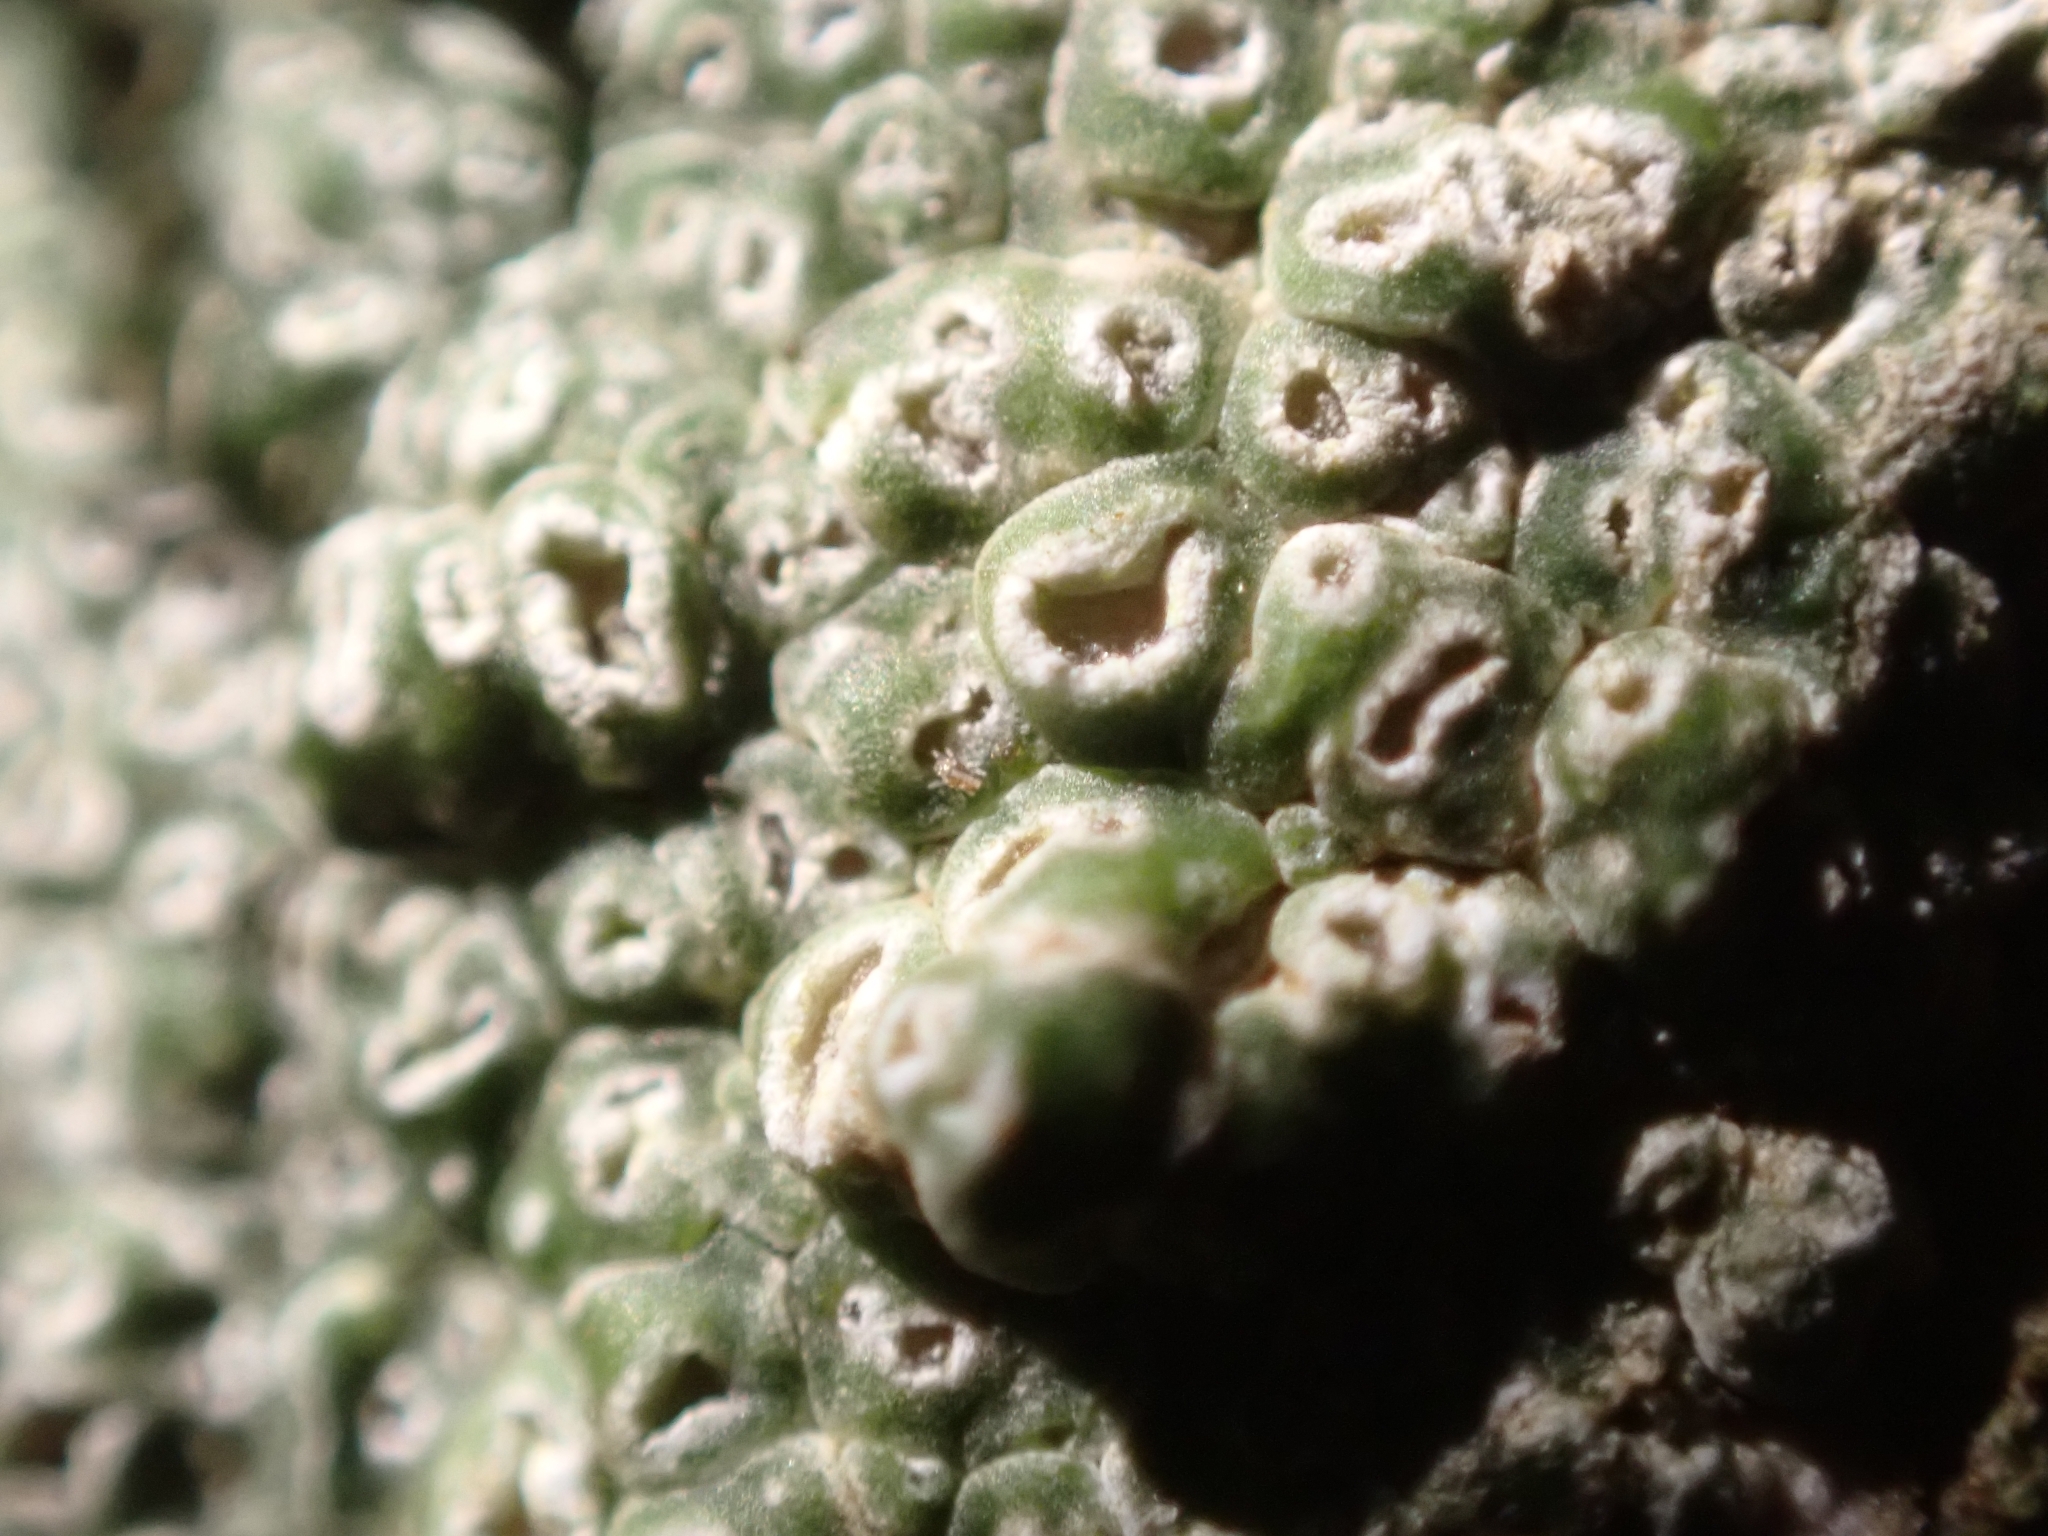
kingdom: Fungi
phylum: Ascomycota
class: Lecanoromycetes
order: Pertusariales
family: Megasporaceae
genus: Circinaria
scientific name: Circinaria contorta
